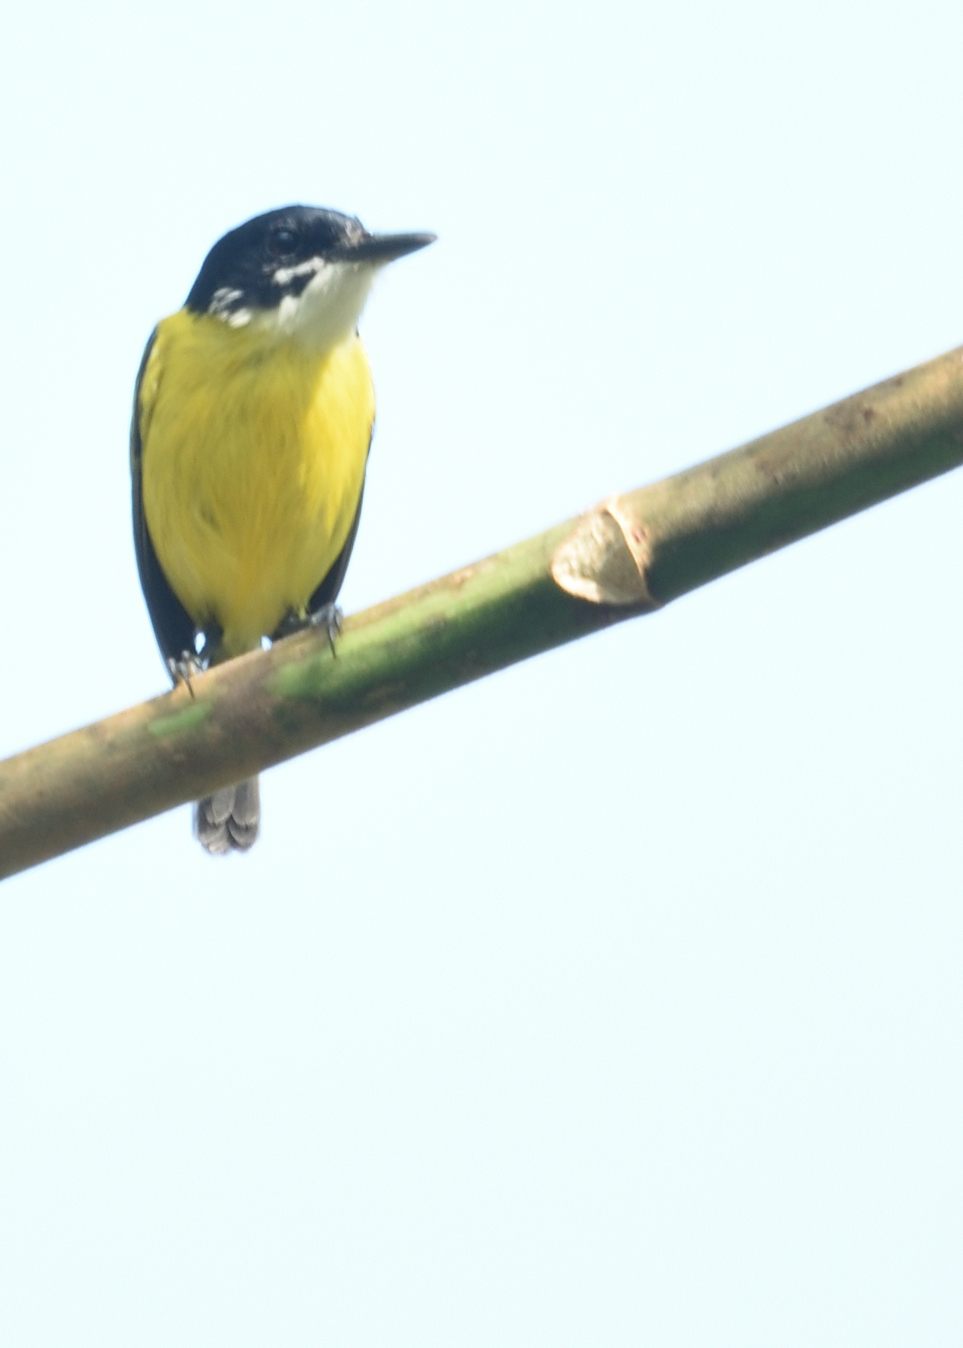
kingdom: Animalia
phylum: Chordata
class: Aves
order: Passeriformes
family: Tyrannidae
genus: Todirostrum
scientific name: Todirostrum nigriceps
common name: Black-headed tody-flycatcher
